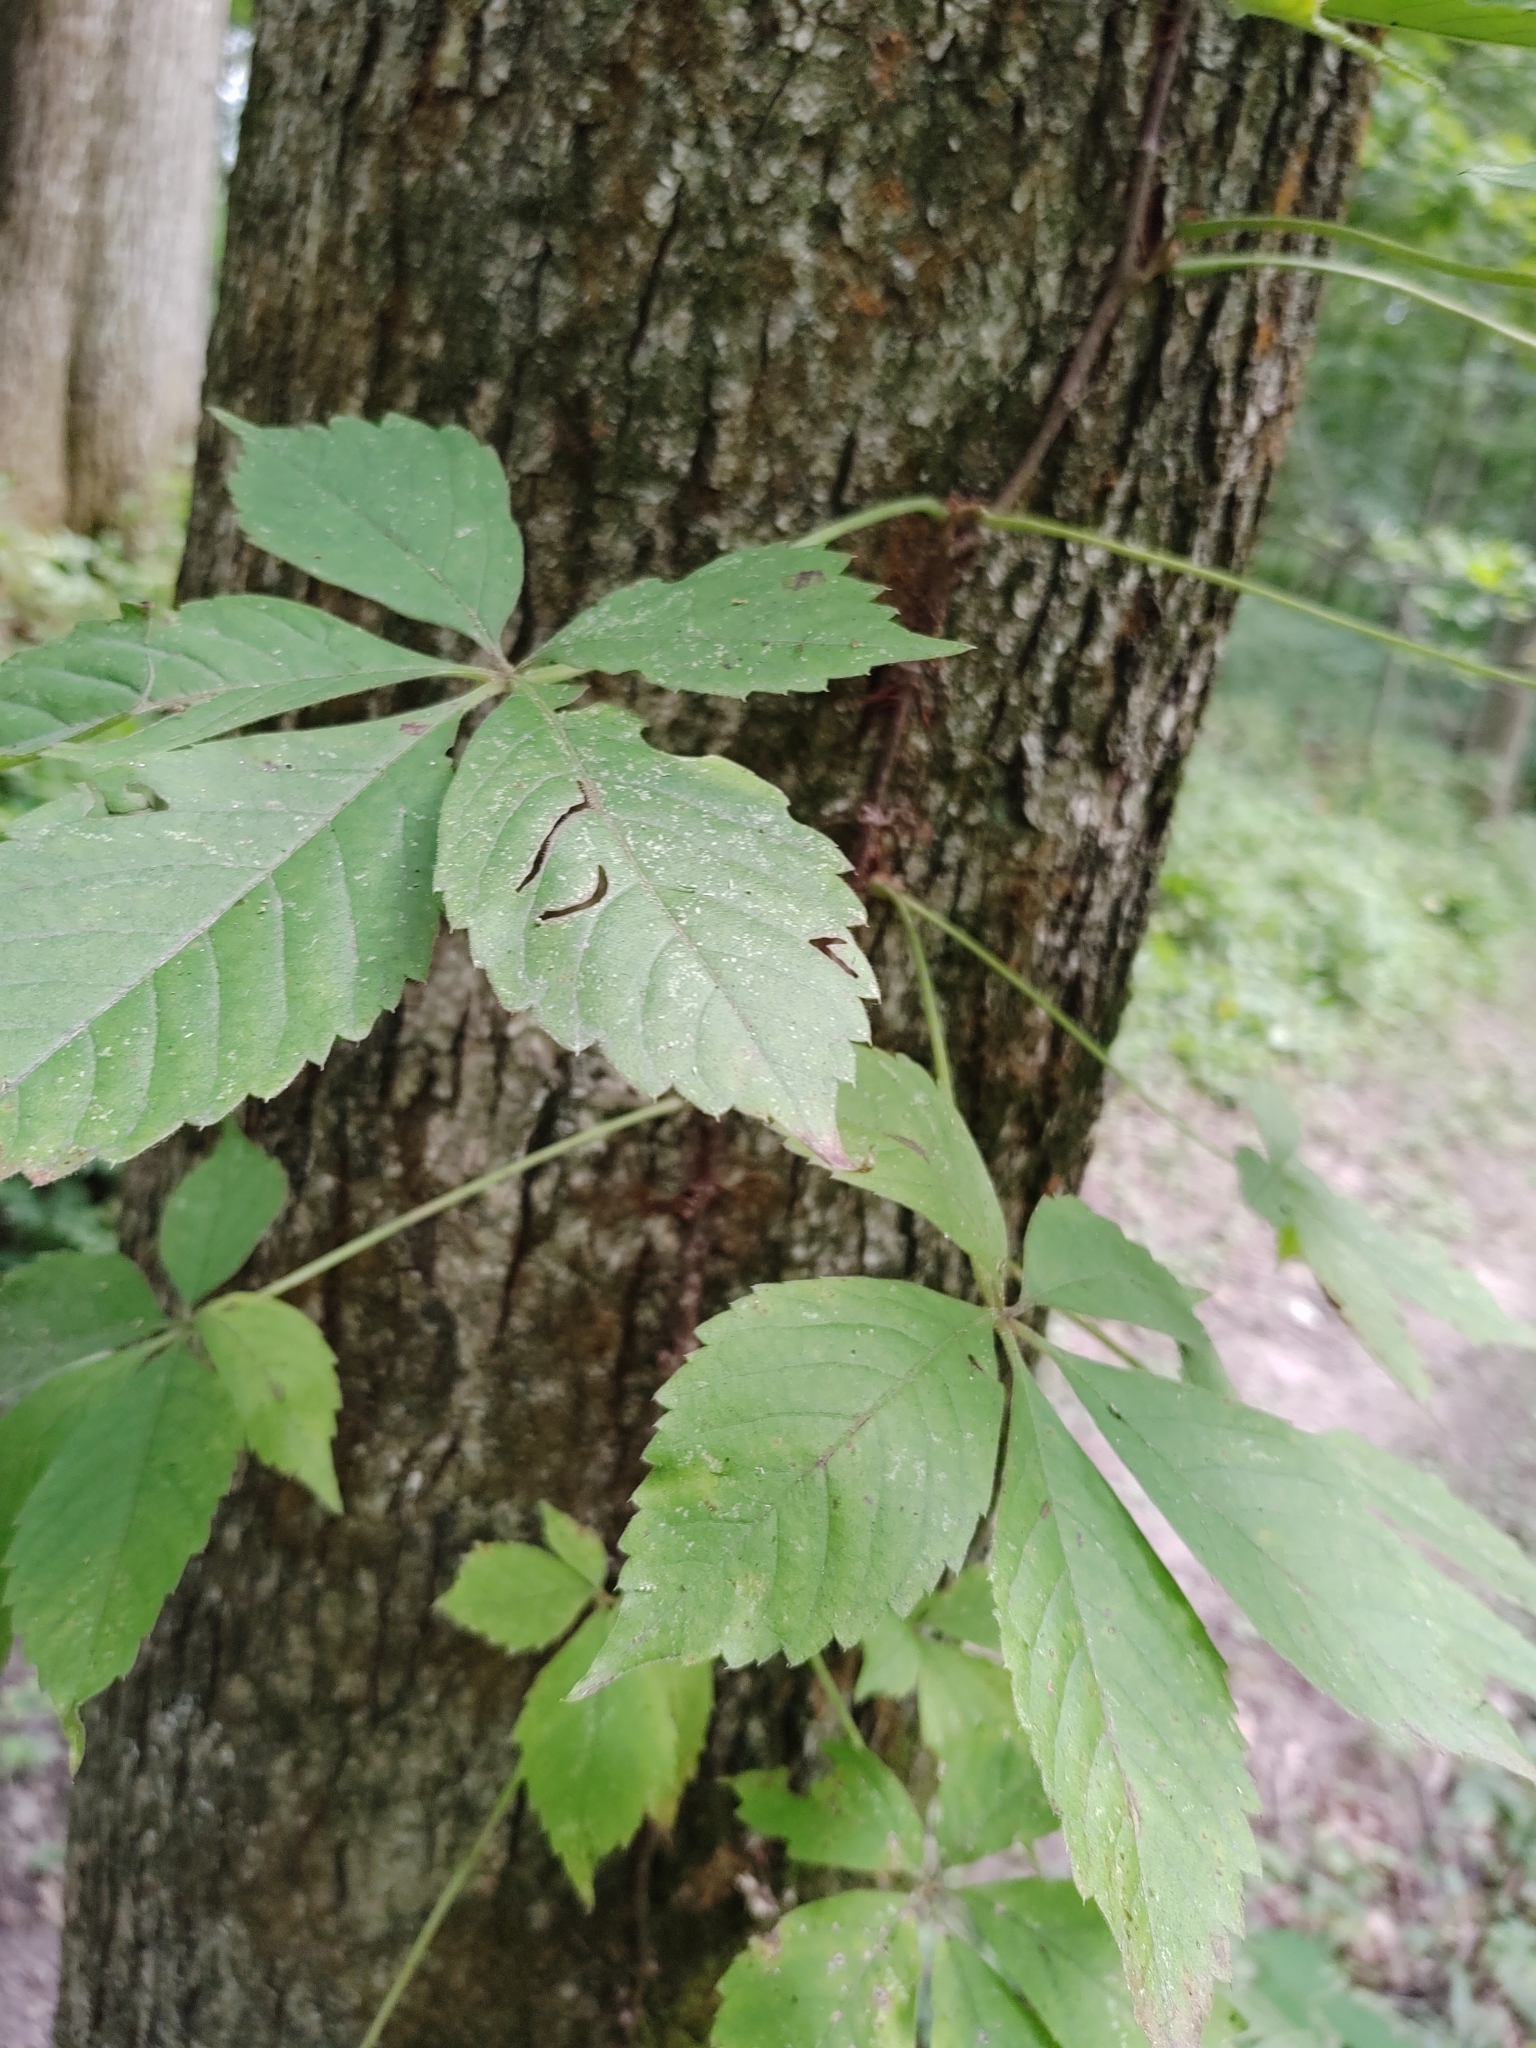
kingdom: Plantae
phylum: Tracheophyta
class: Magnoliopsida
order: Vitales
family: Vitaceae
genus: Parthenocissus
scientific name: Parthenocissus quinquefolia
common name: Virginia-creeper
